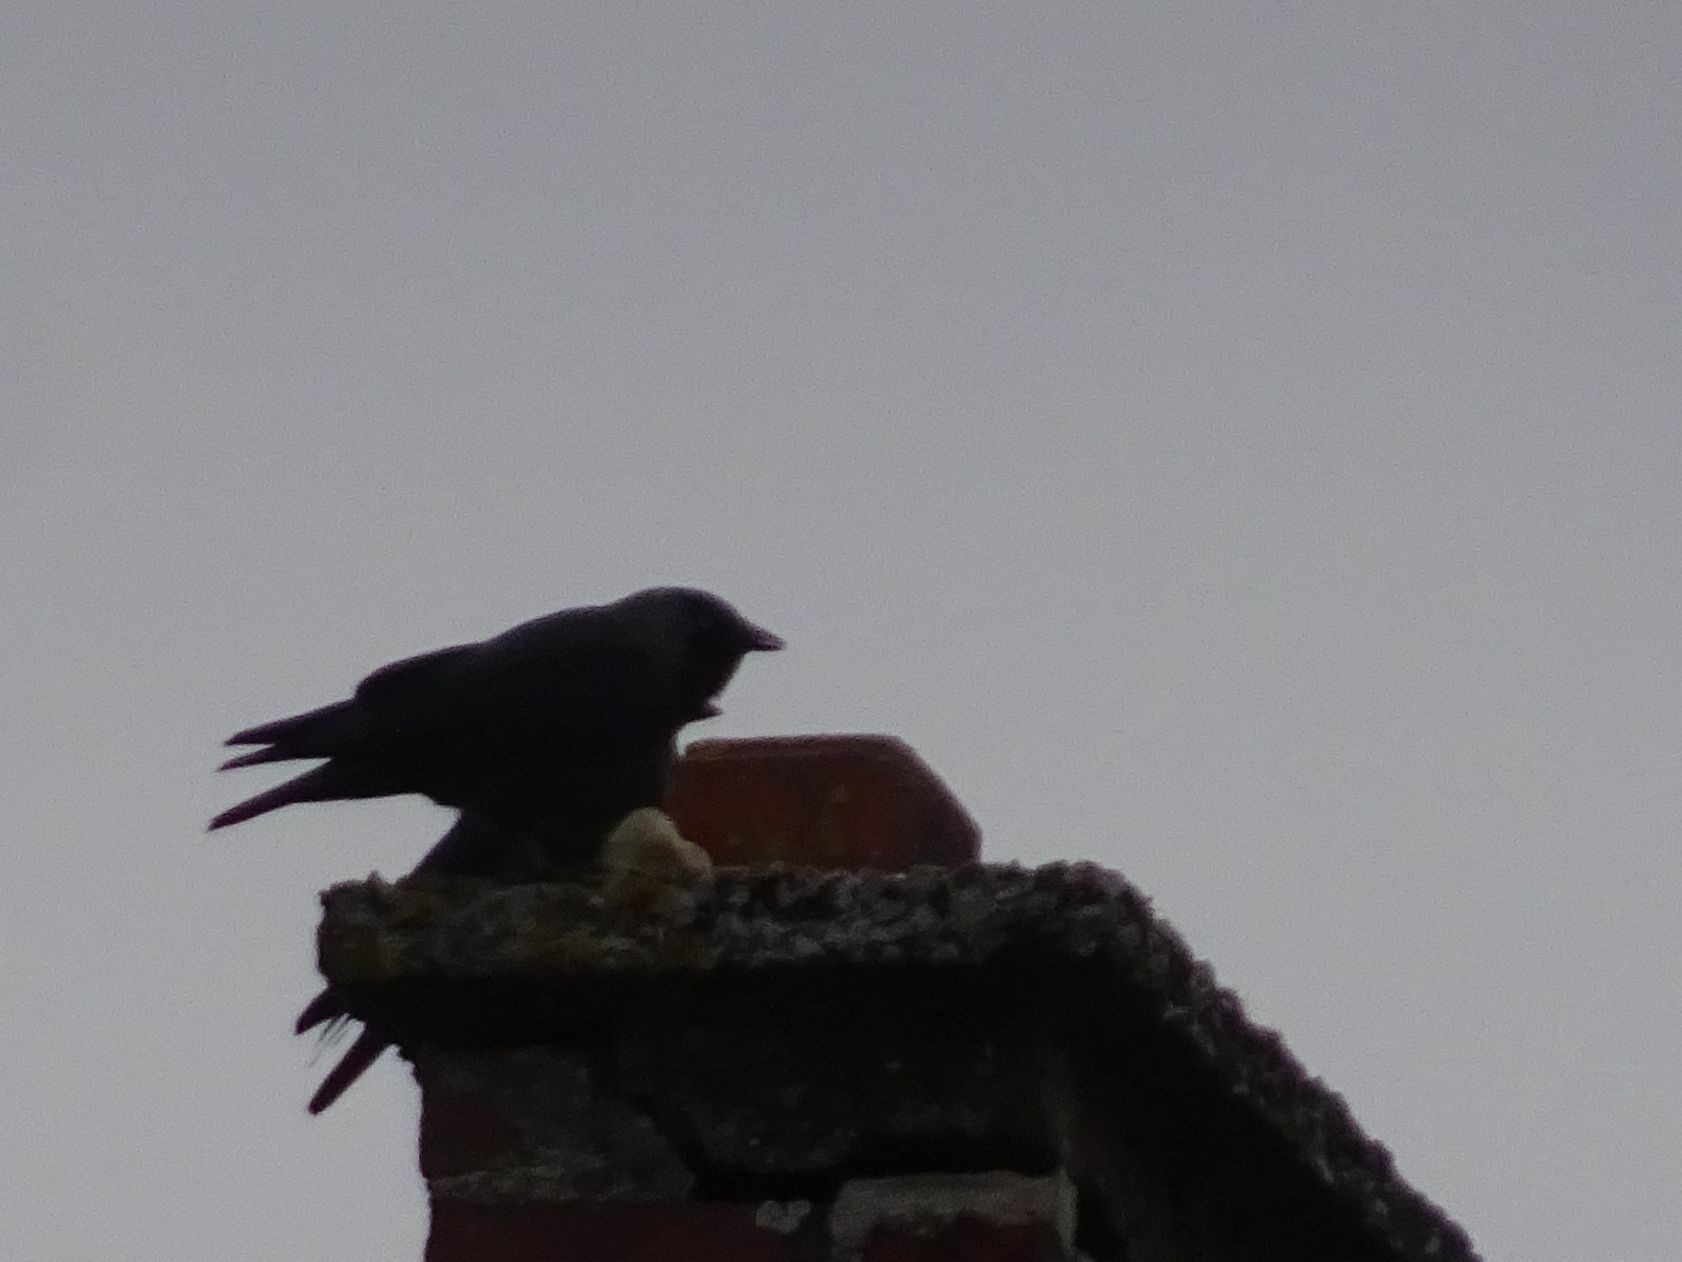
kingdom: Animalia
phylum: Chordata
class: Aves
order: Passeriformes
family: Corvidae
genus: Coloeus
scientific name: Coloeus monedula
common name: Western jackdaw
